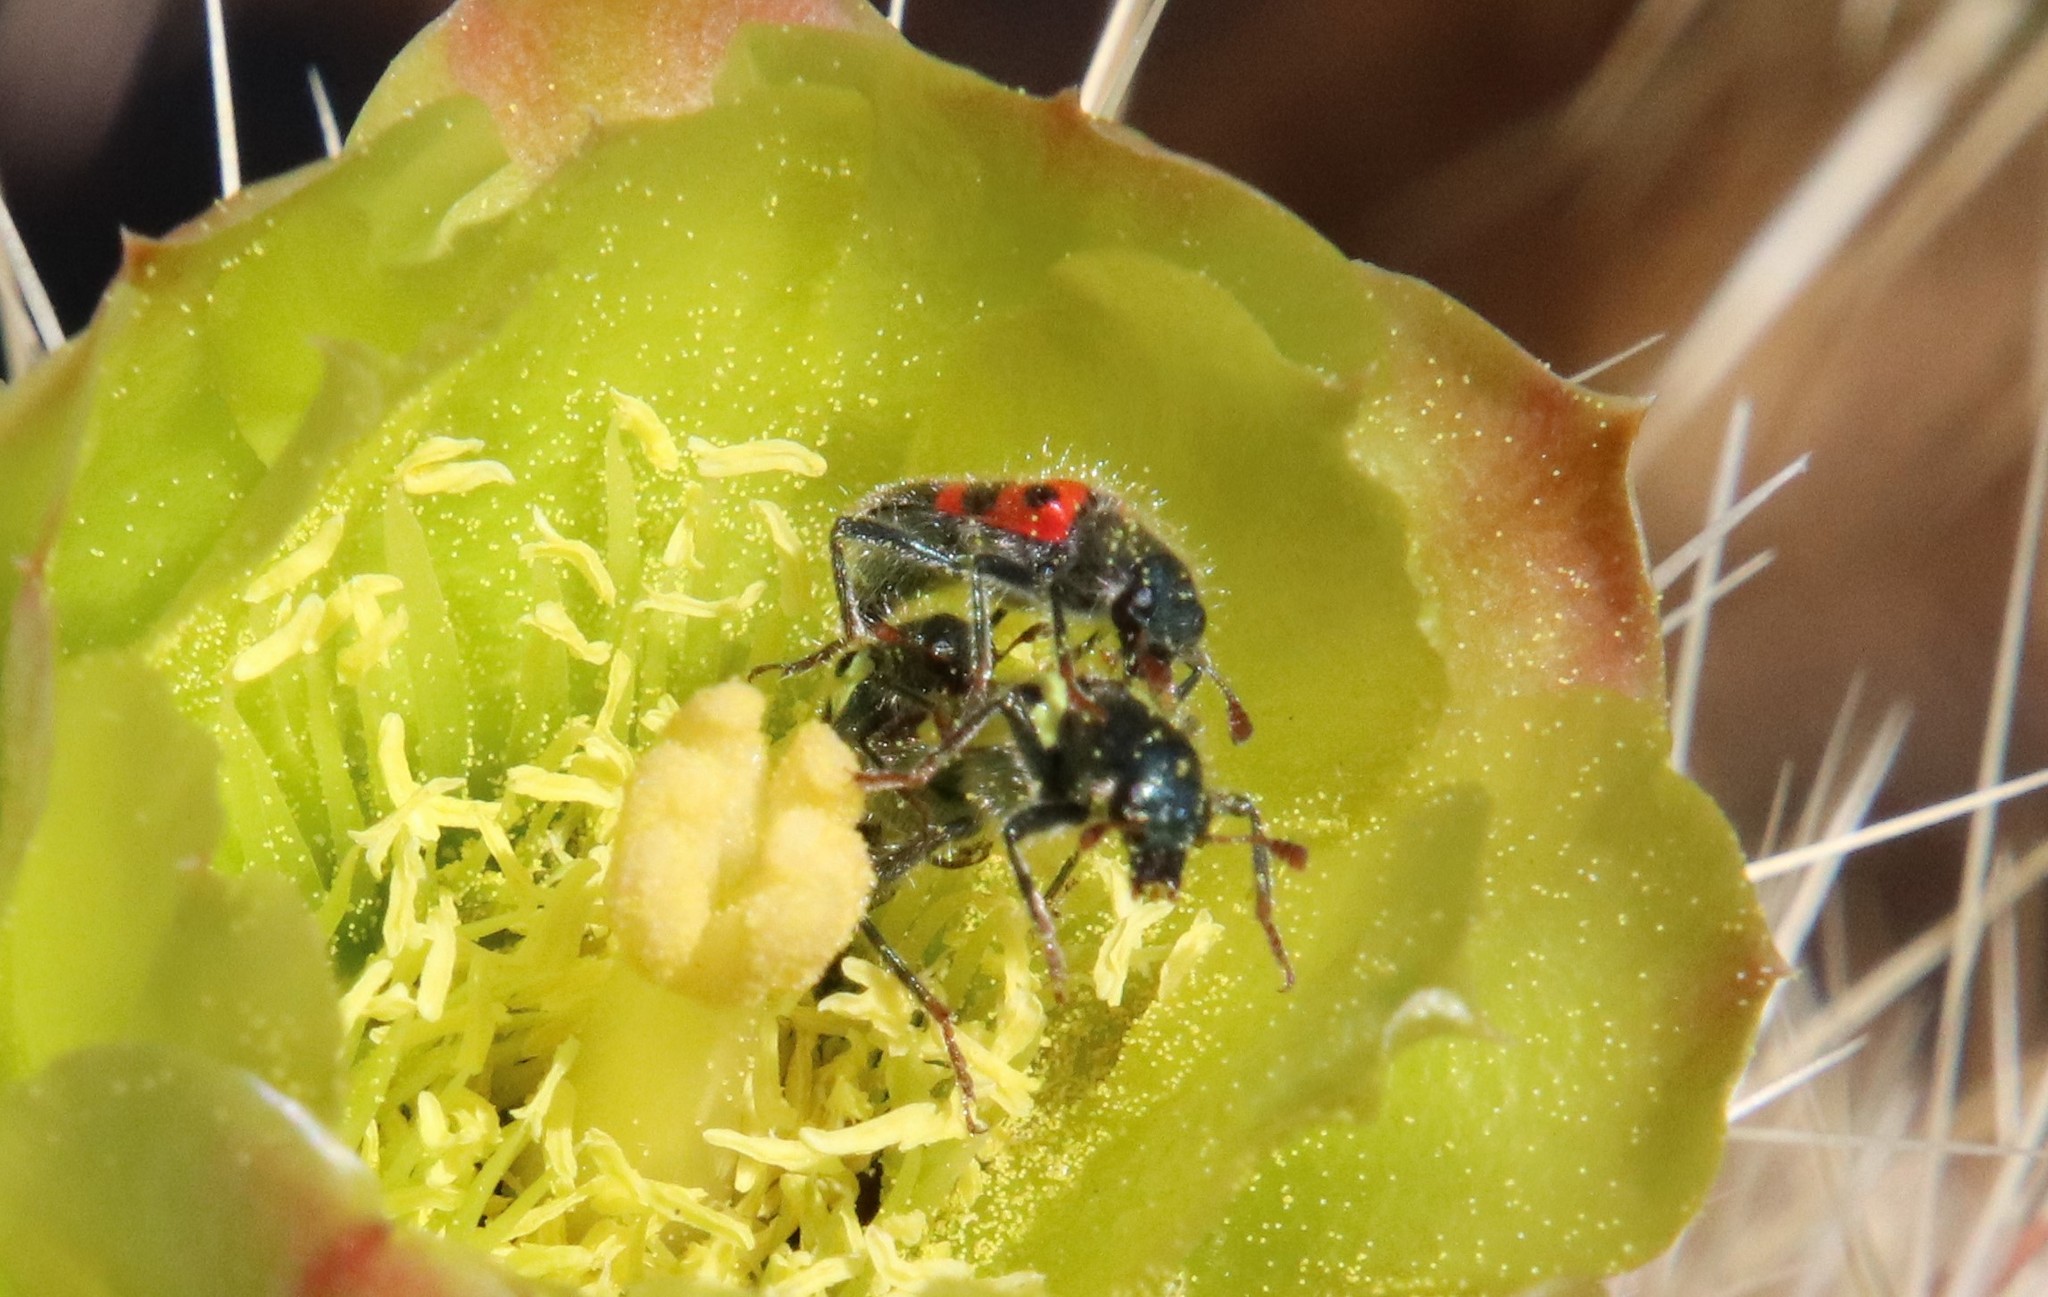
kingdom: Animalia
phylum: Arthropoda
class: Insecta
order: Coleoptera
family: Cleridae
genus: Trichodes
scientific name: Trichodes ornatus
